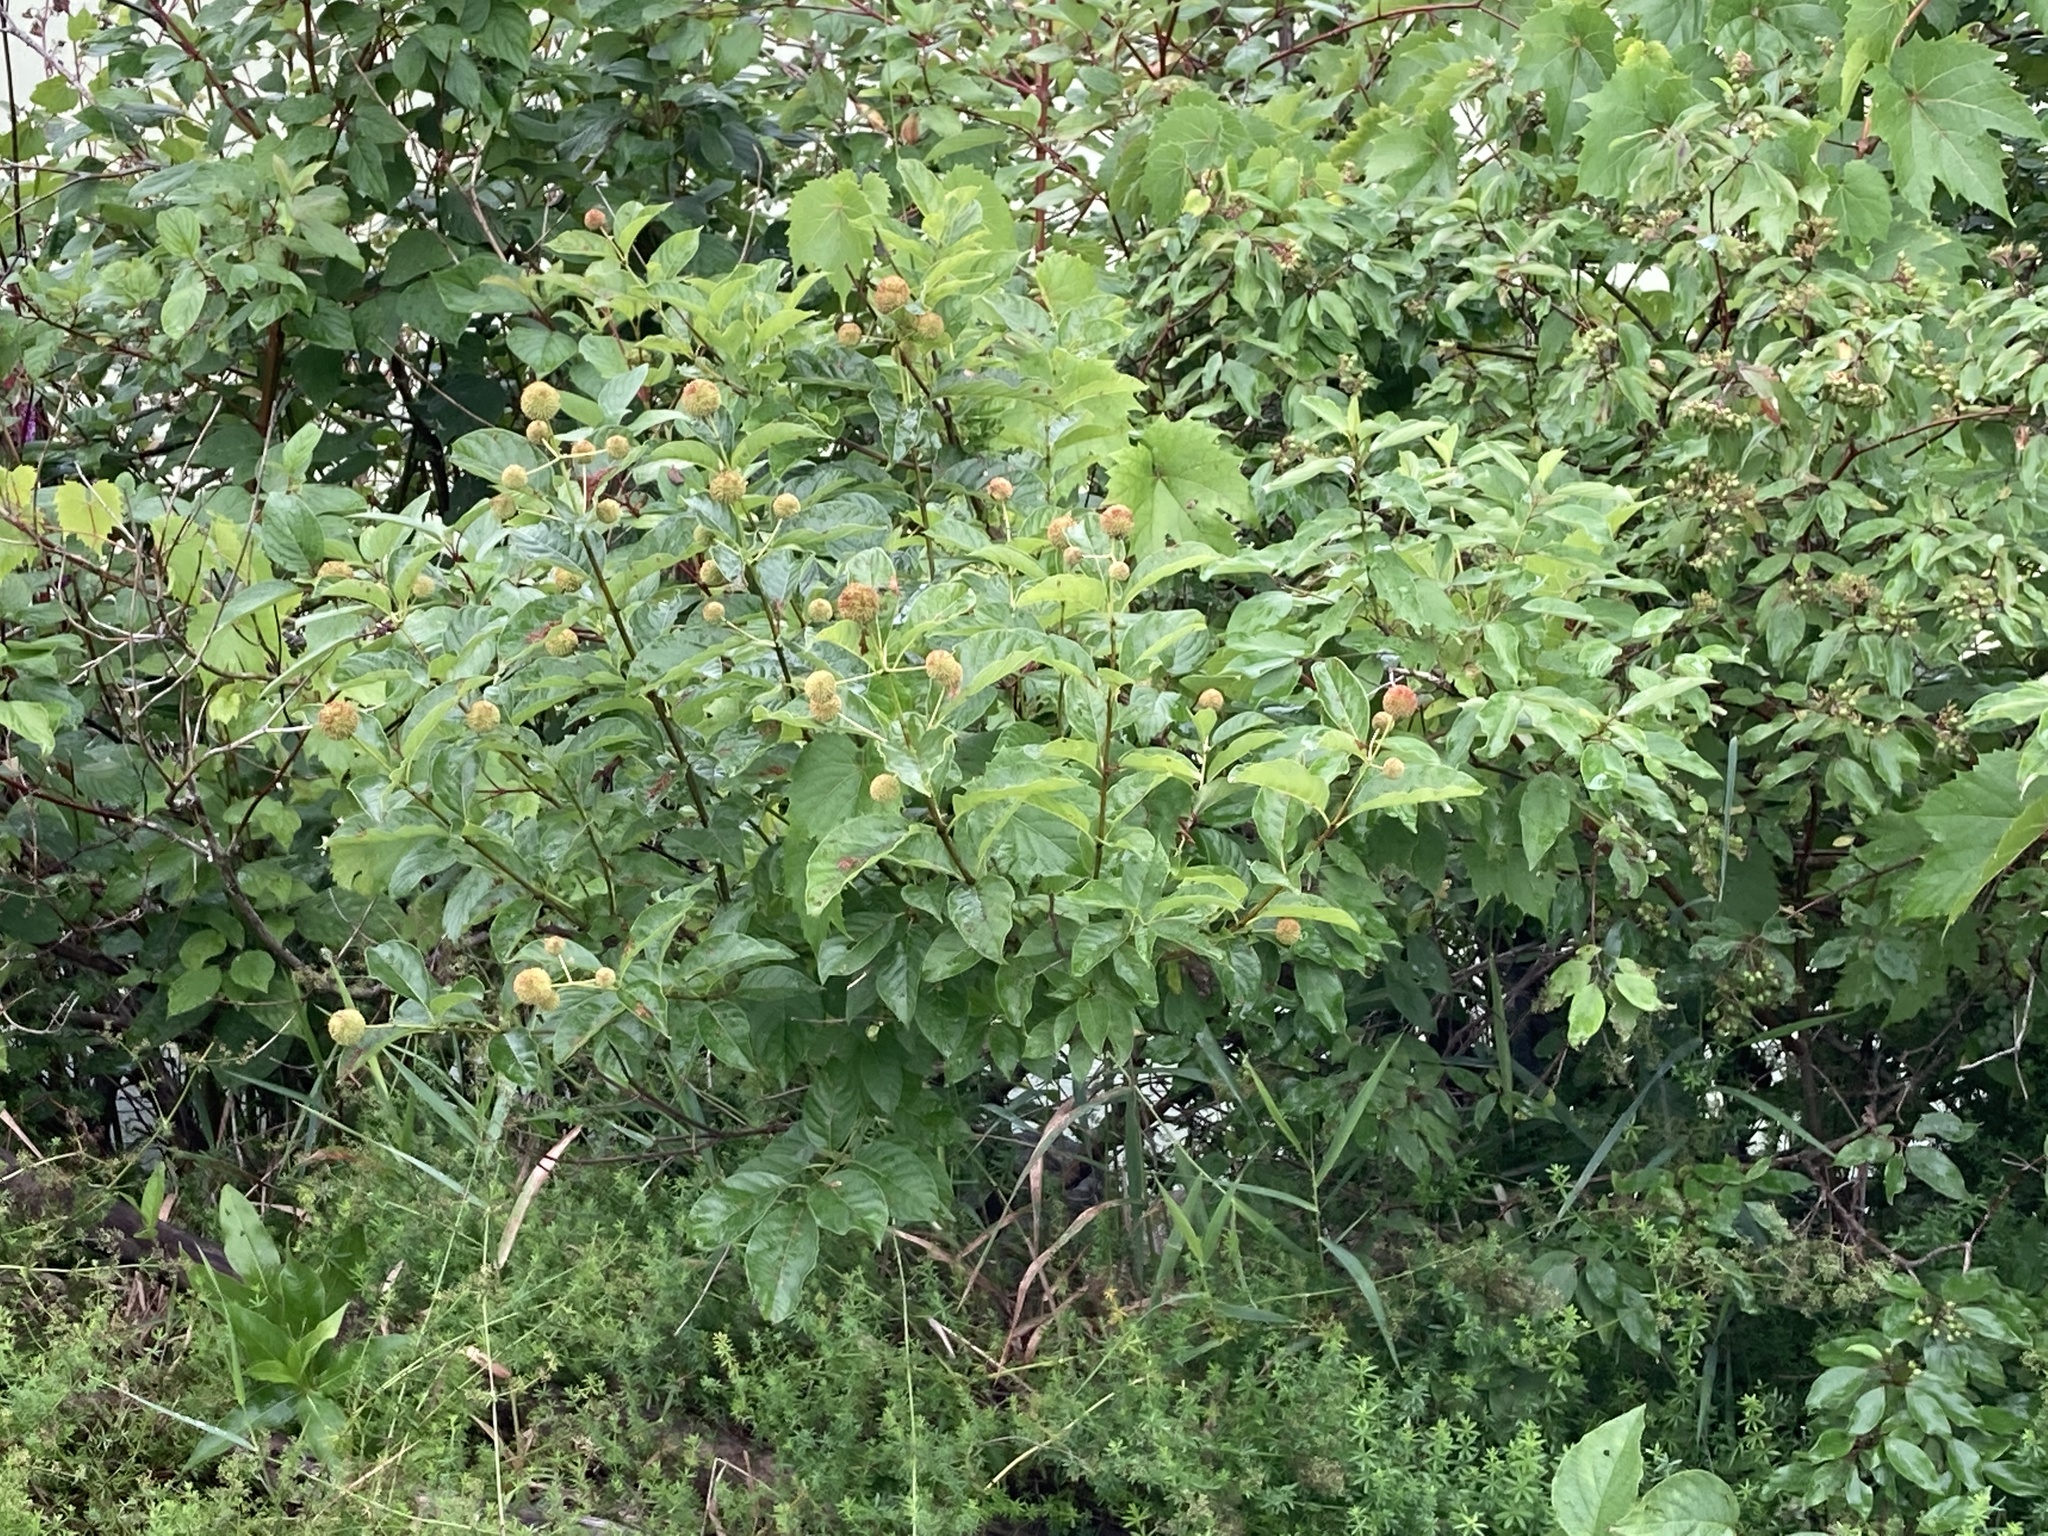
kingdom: Plantae
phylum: Tracheophyta
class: Magnoliopsida
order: Gentianales
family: Rubiaceae
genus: Cephalanthus
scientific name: Cephalanthus occidentalis
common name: Button-willow
